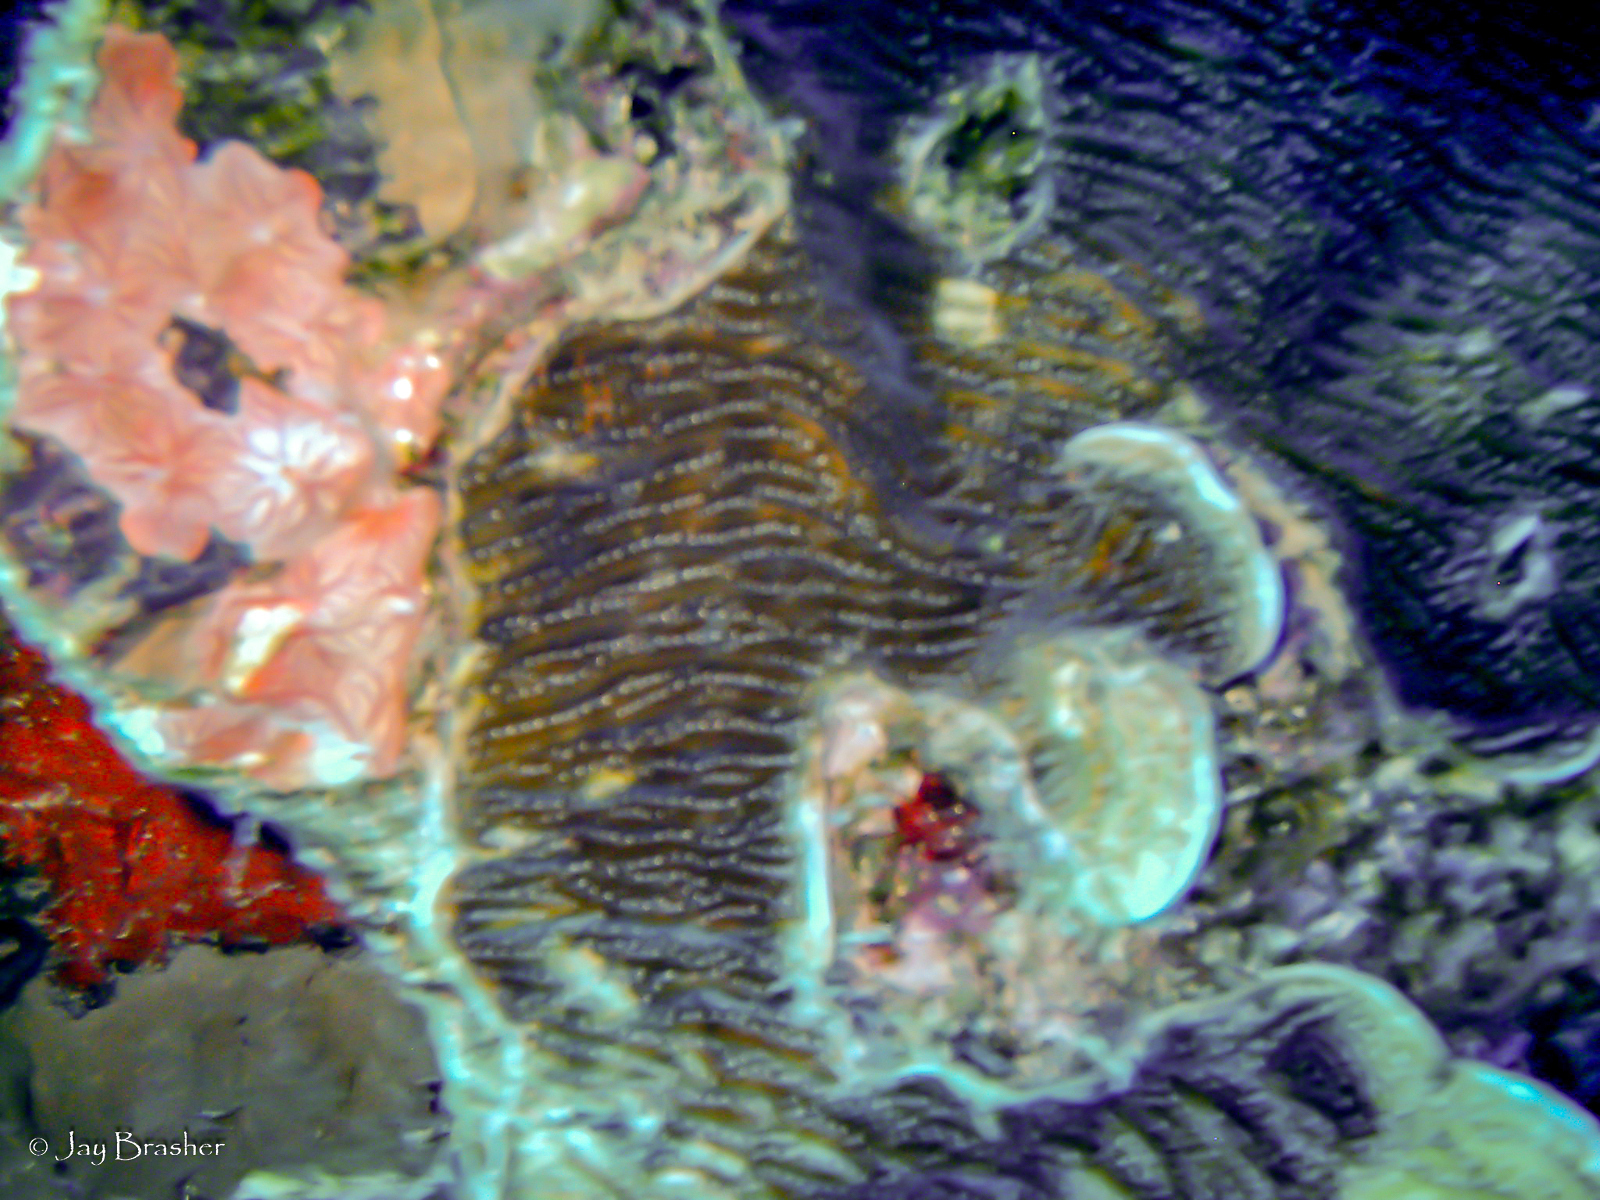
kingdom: Animalia
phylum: Cnidaria
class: Anthozoa
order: Scleractinia
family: Agariciidae
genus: Agaricia
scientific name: Agaricia lamarcki
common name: Lamarck's sheet coral
